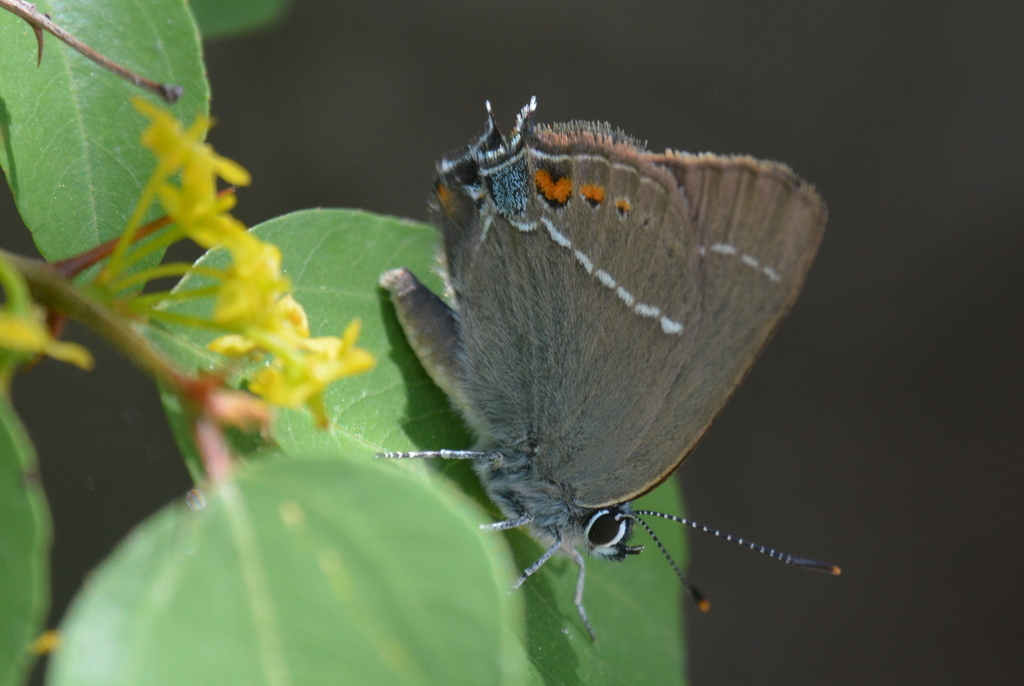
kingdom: Animalia
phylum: Arthropoda
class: Insecta
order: Lepidoptera
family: Lycaenidae
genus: Tuttiola
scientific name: Tuttiola spini
